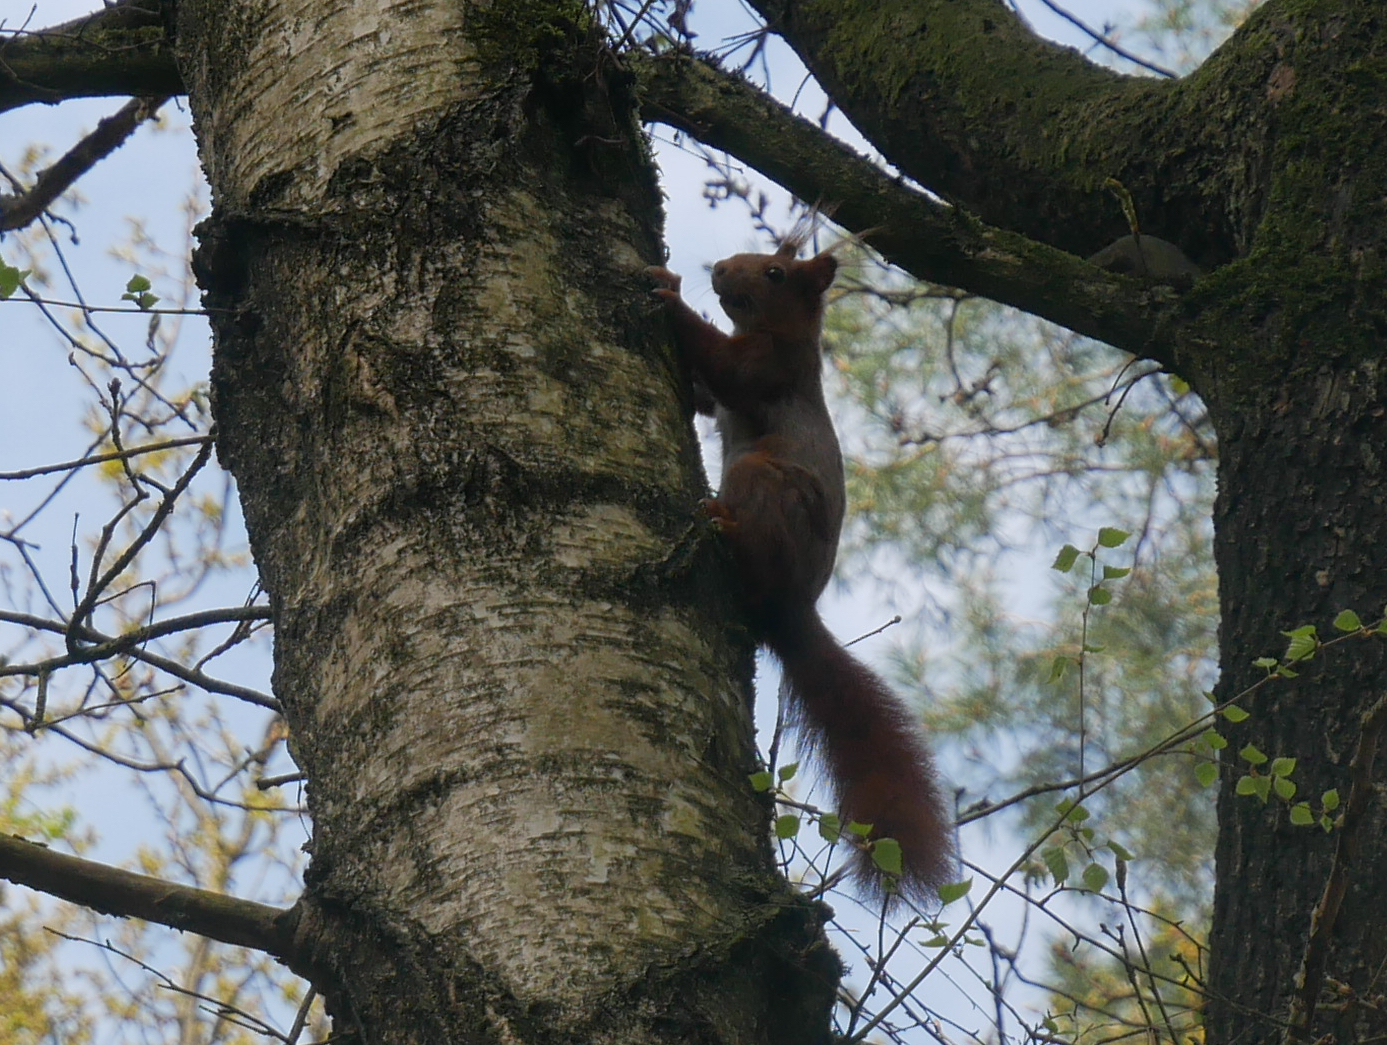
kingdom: Animalia
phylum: Chordata
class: Mammalia
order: Rodentia
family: Sciuridae
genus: Sciurus
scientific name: Sciurus vulgaris
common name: Eurasian red squirrel
